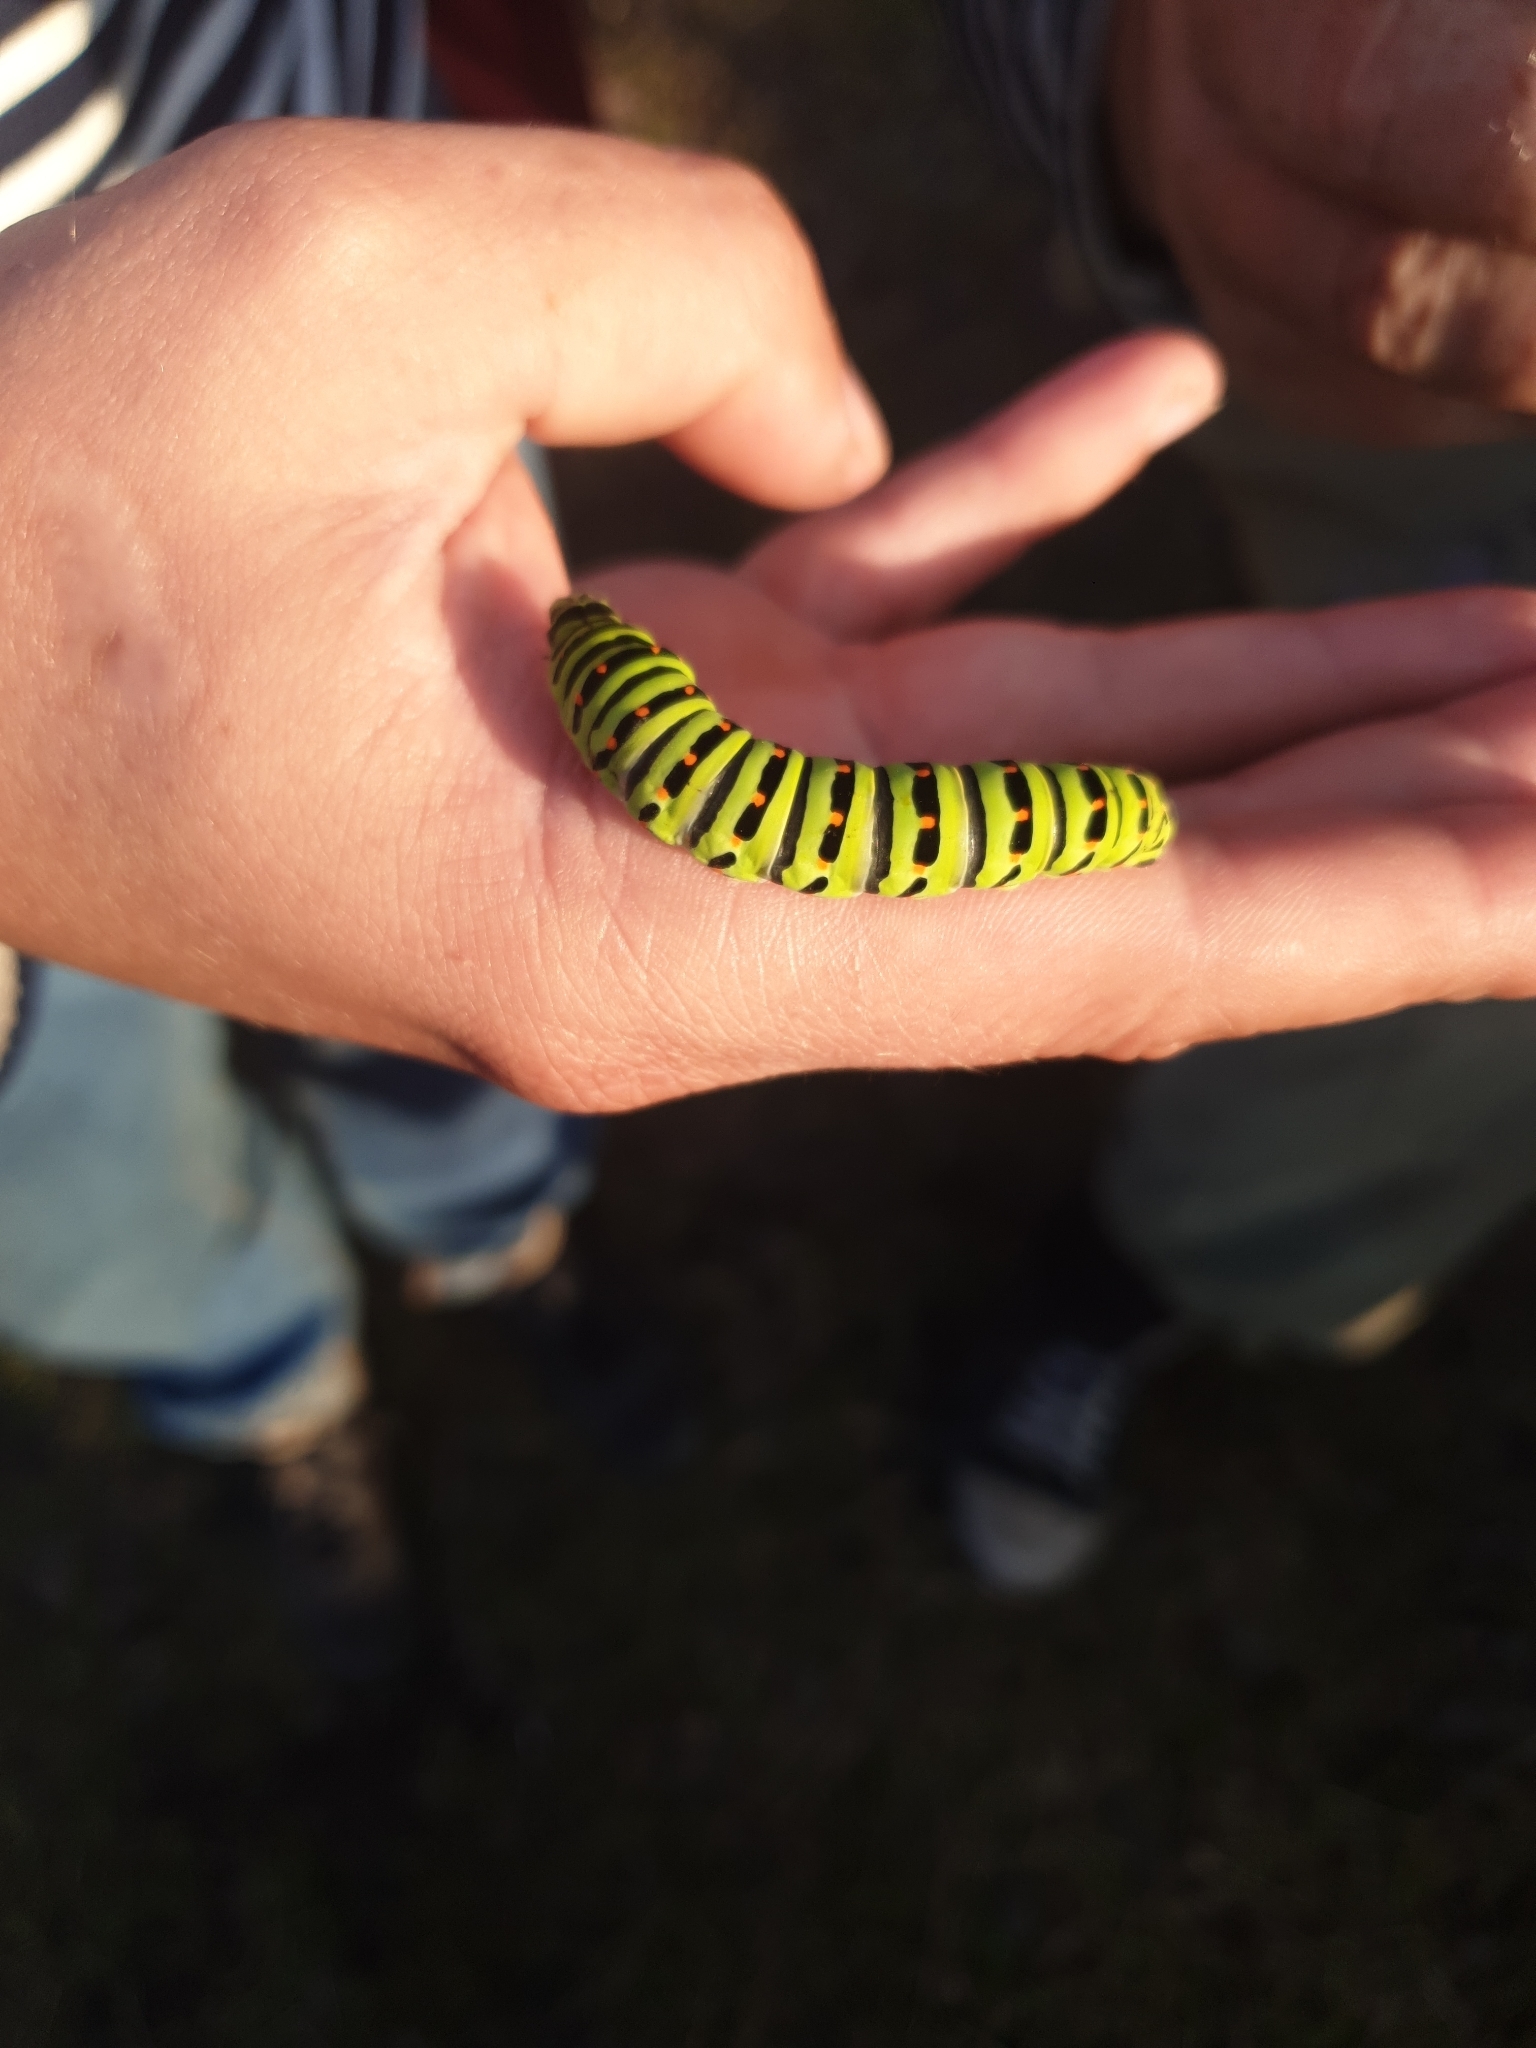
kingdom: Animalia
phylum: Arthropoda
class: Insecta
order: Lepidoptera
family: Papilionidae
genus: Papilio
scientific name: Papilio machaon
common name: Swallowtail
